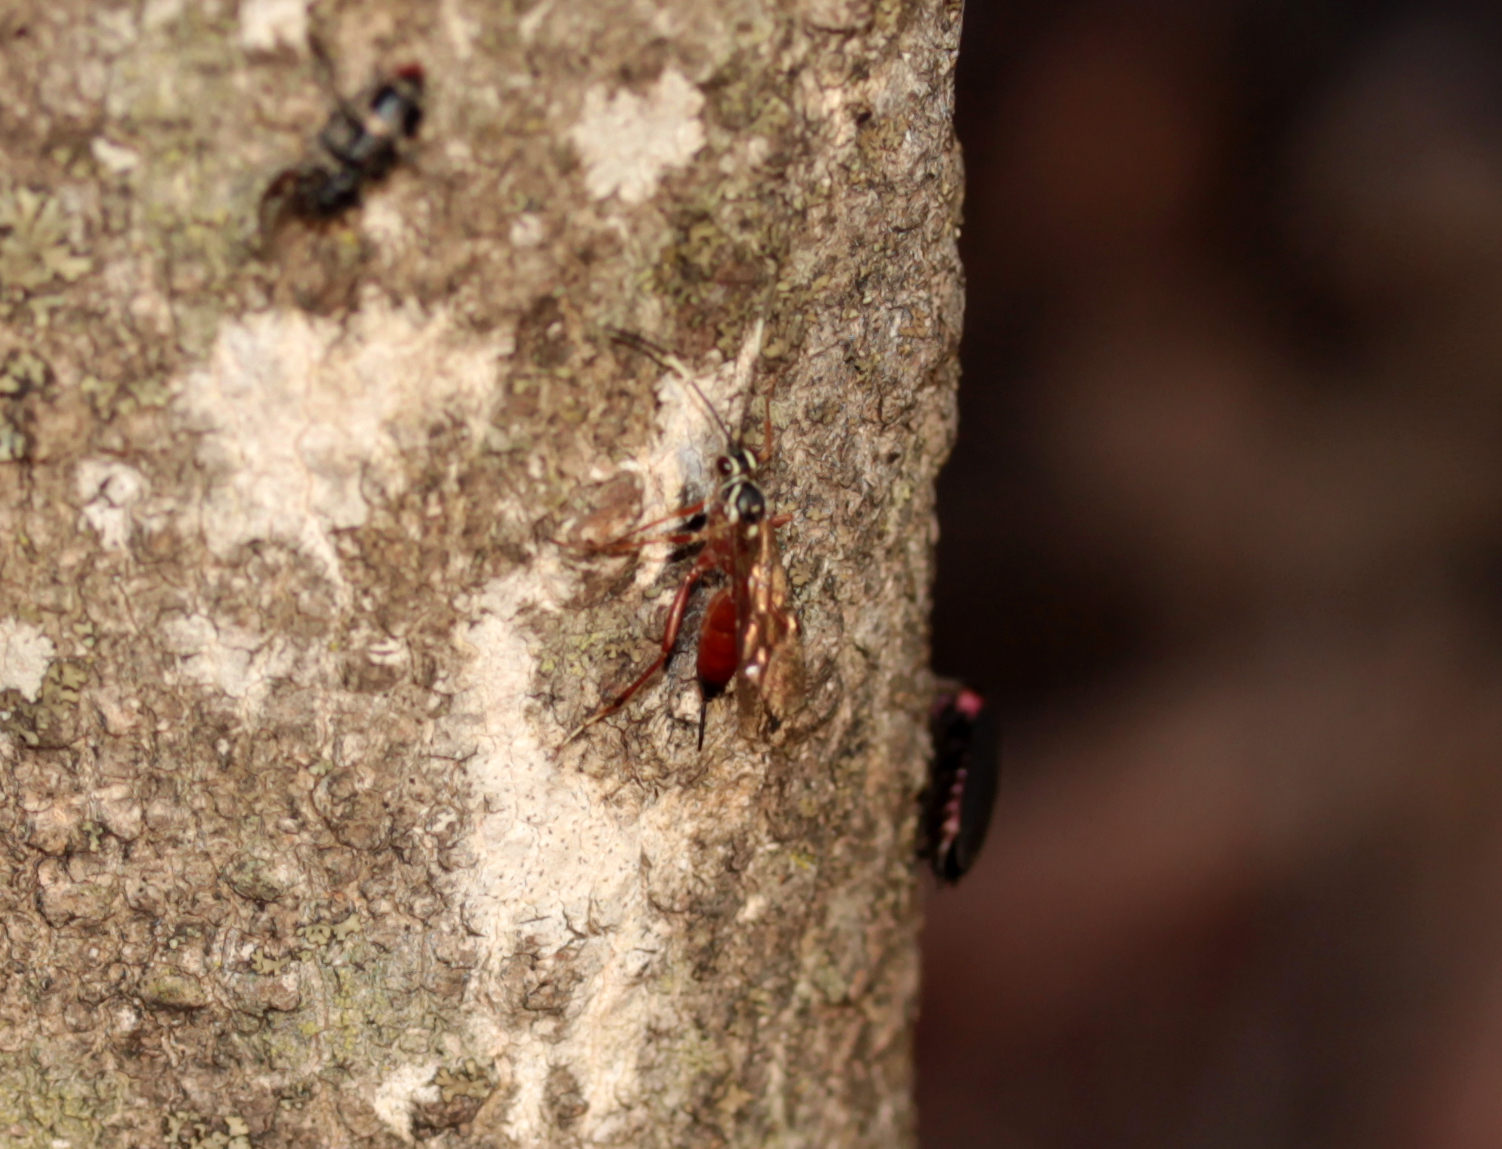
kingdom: Animalia
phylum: Arthropoda
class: Insecta
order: Hymenoptera
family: Ichneumonidae
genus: Ischnus
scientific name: Ischnus inquisitorius
